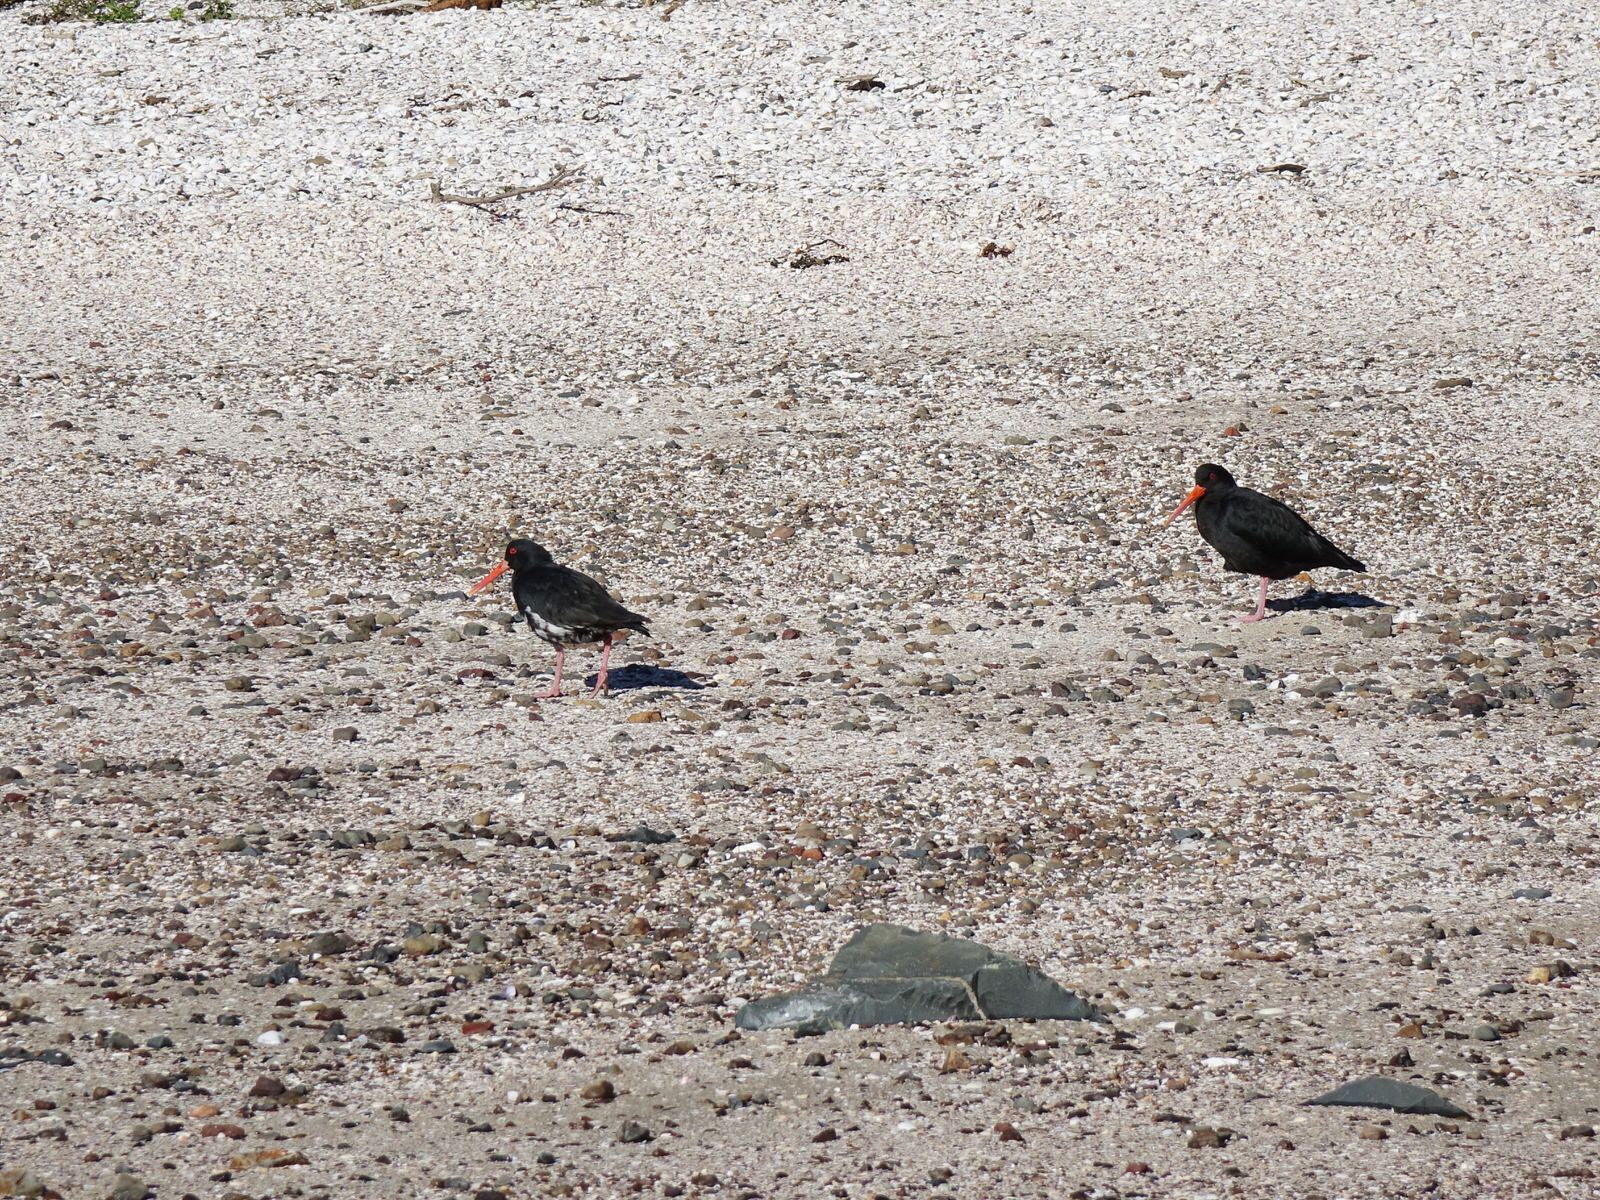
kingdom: Animalia
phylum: Chordata
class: Aves
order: Charadriiformes
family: Haematopodidae
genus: Haematopus
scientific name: Haematopus unicolor
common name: Variable oystercatcher
